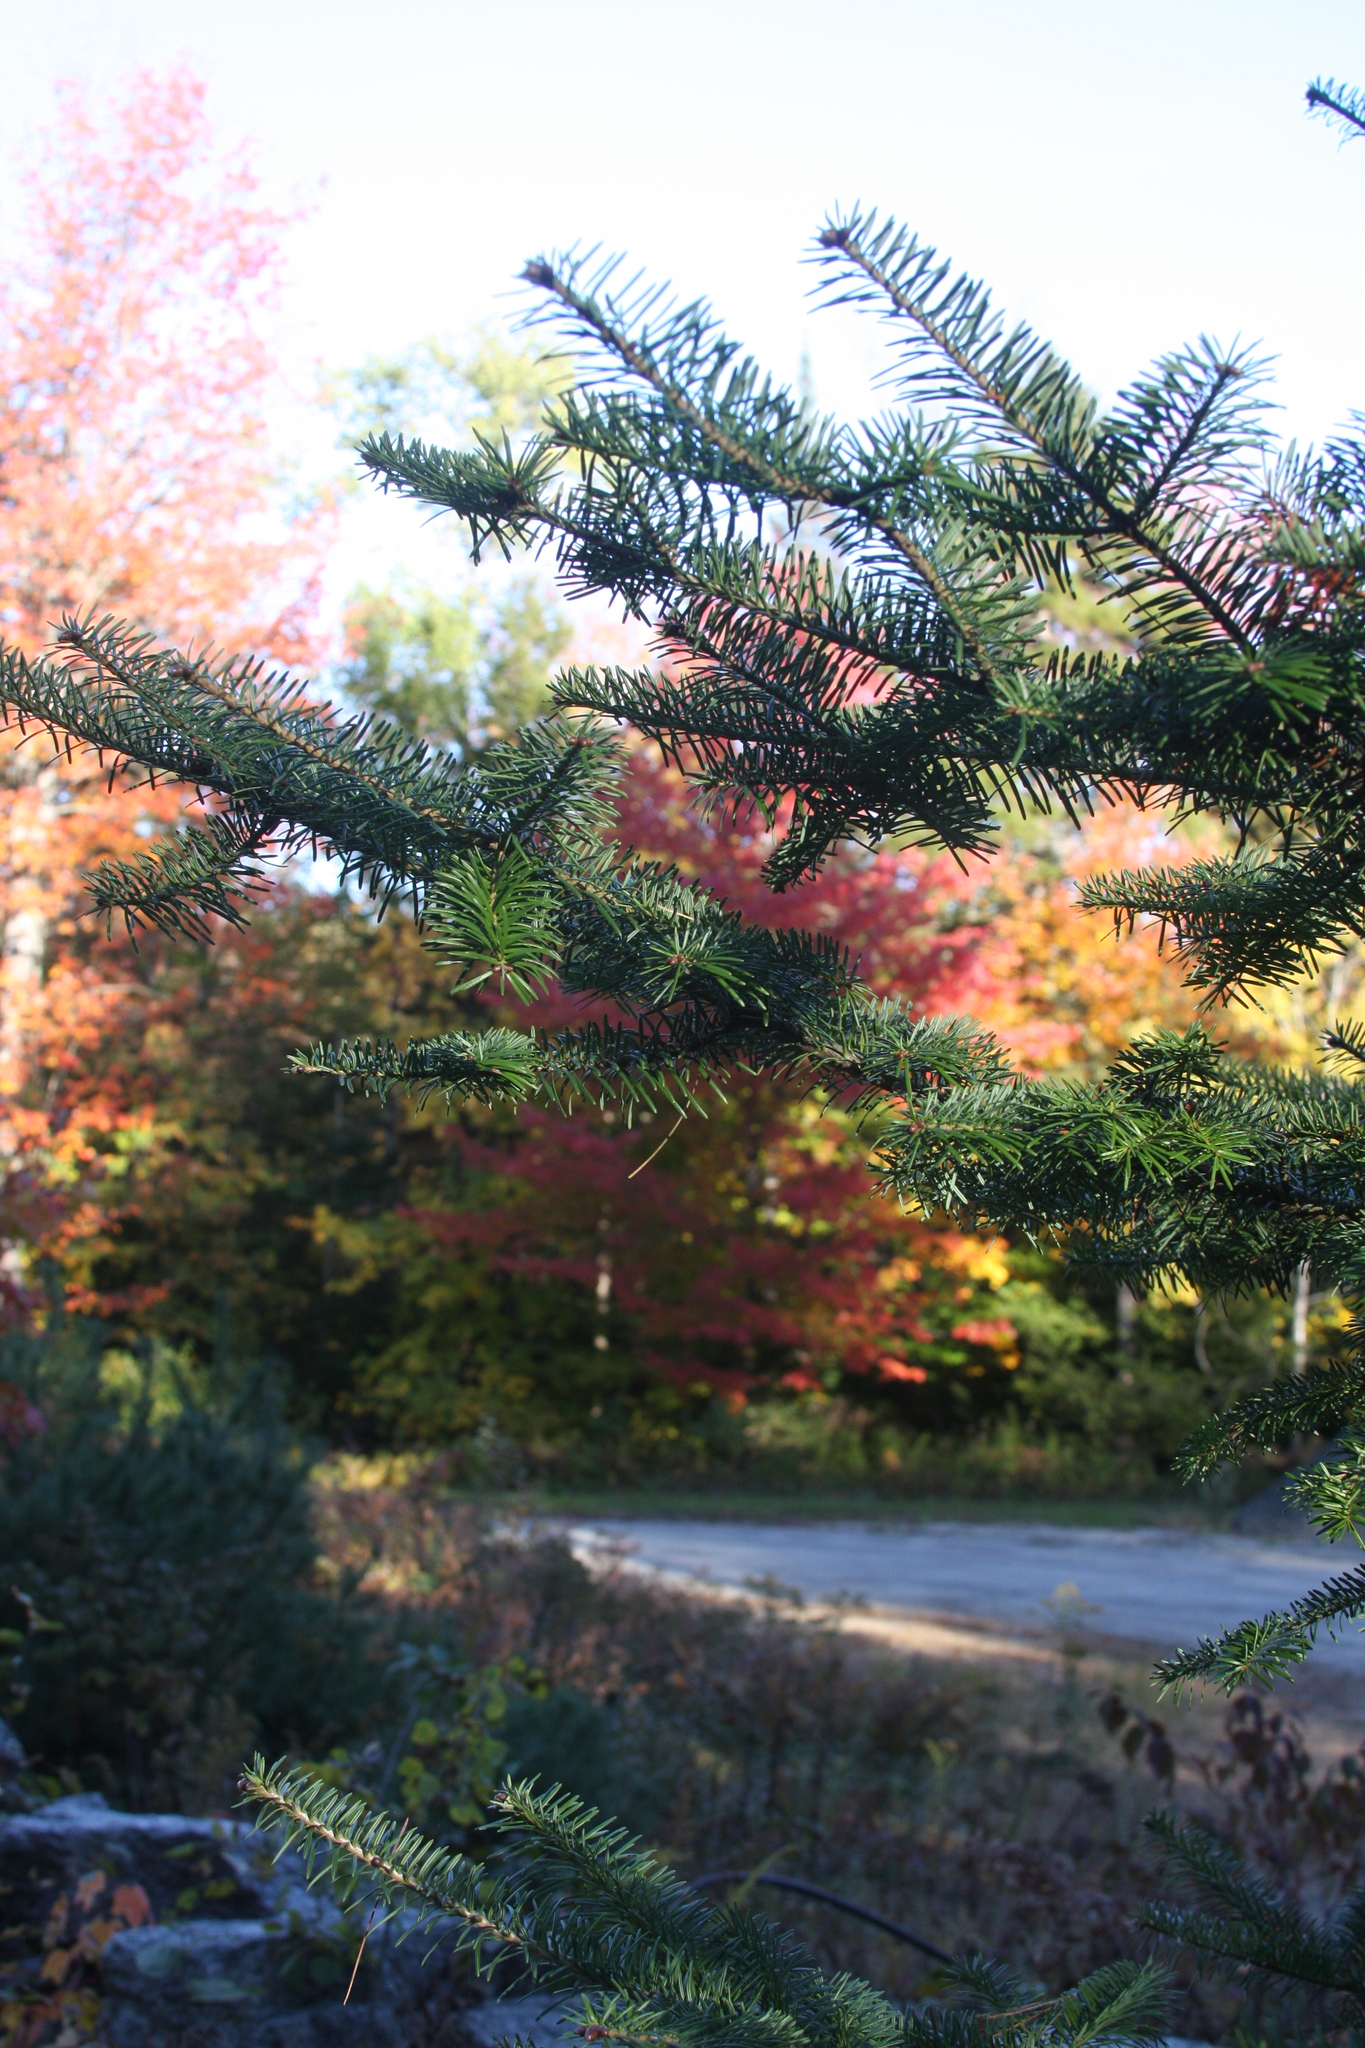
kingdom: Plantae
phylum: Tracheophyta
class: Pinopsida
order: Pinales
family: Pinaceae
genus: Abies
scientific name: Abies balsamea
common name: Balsam fir
